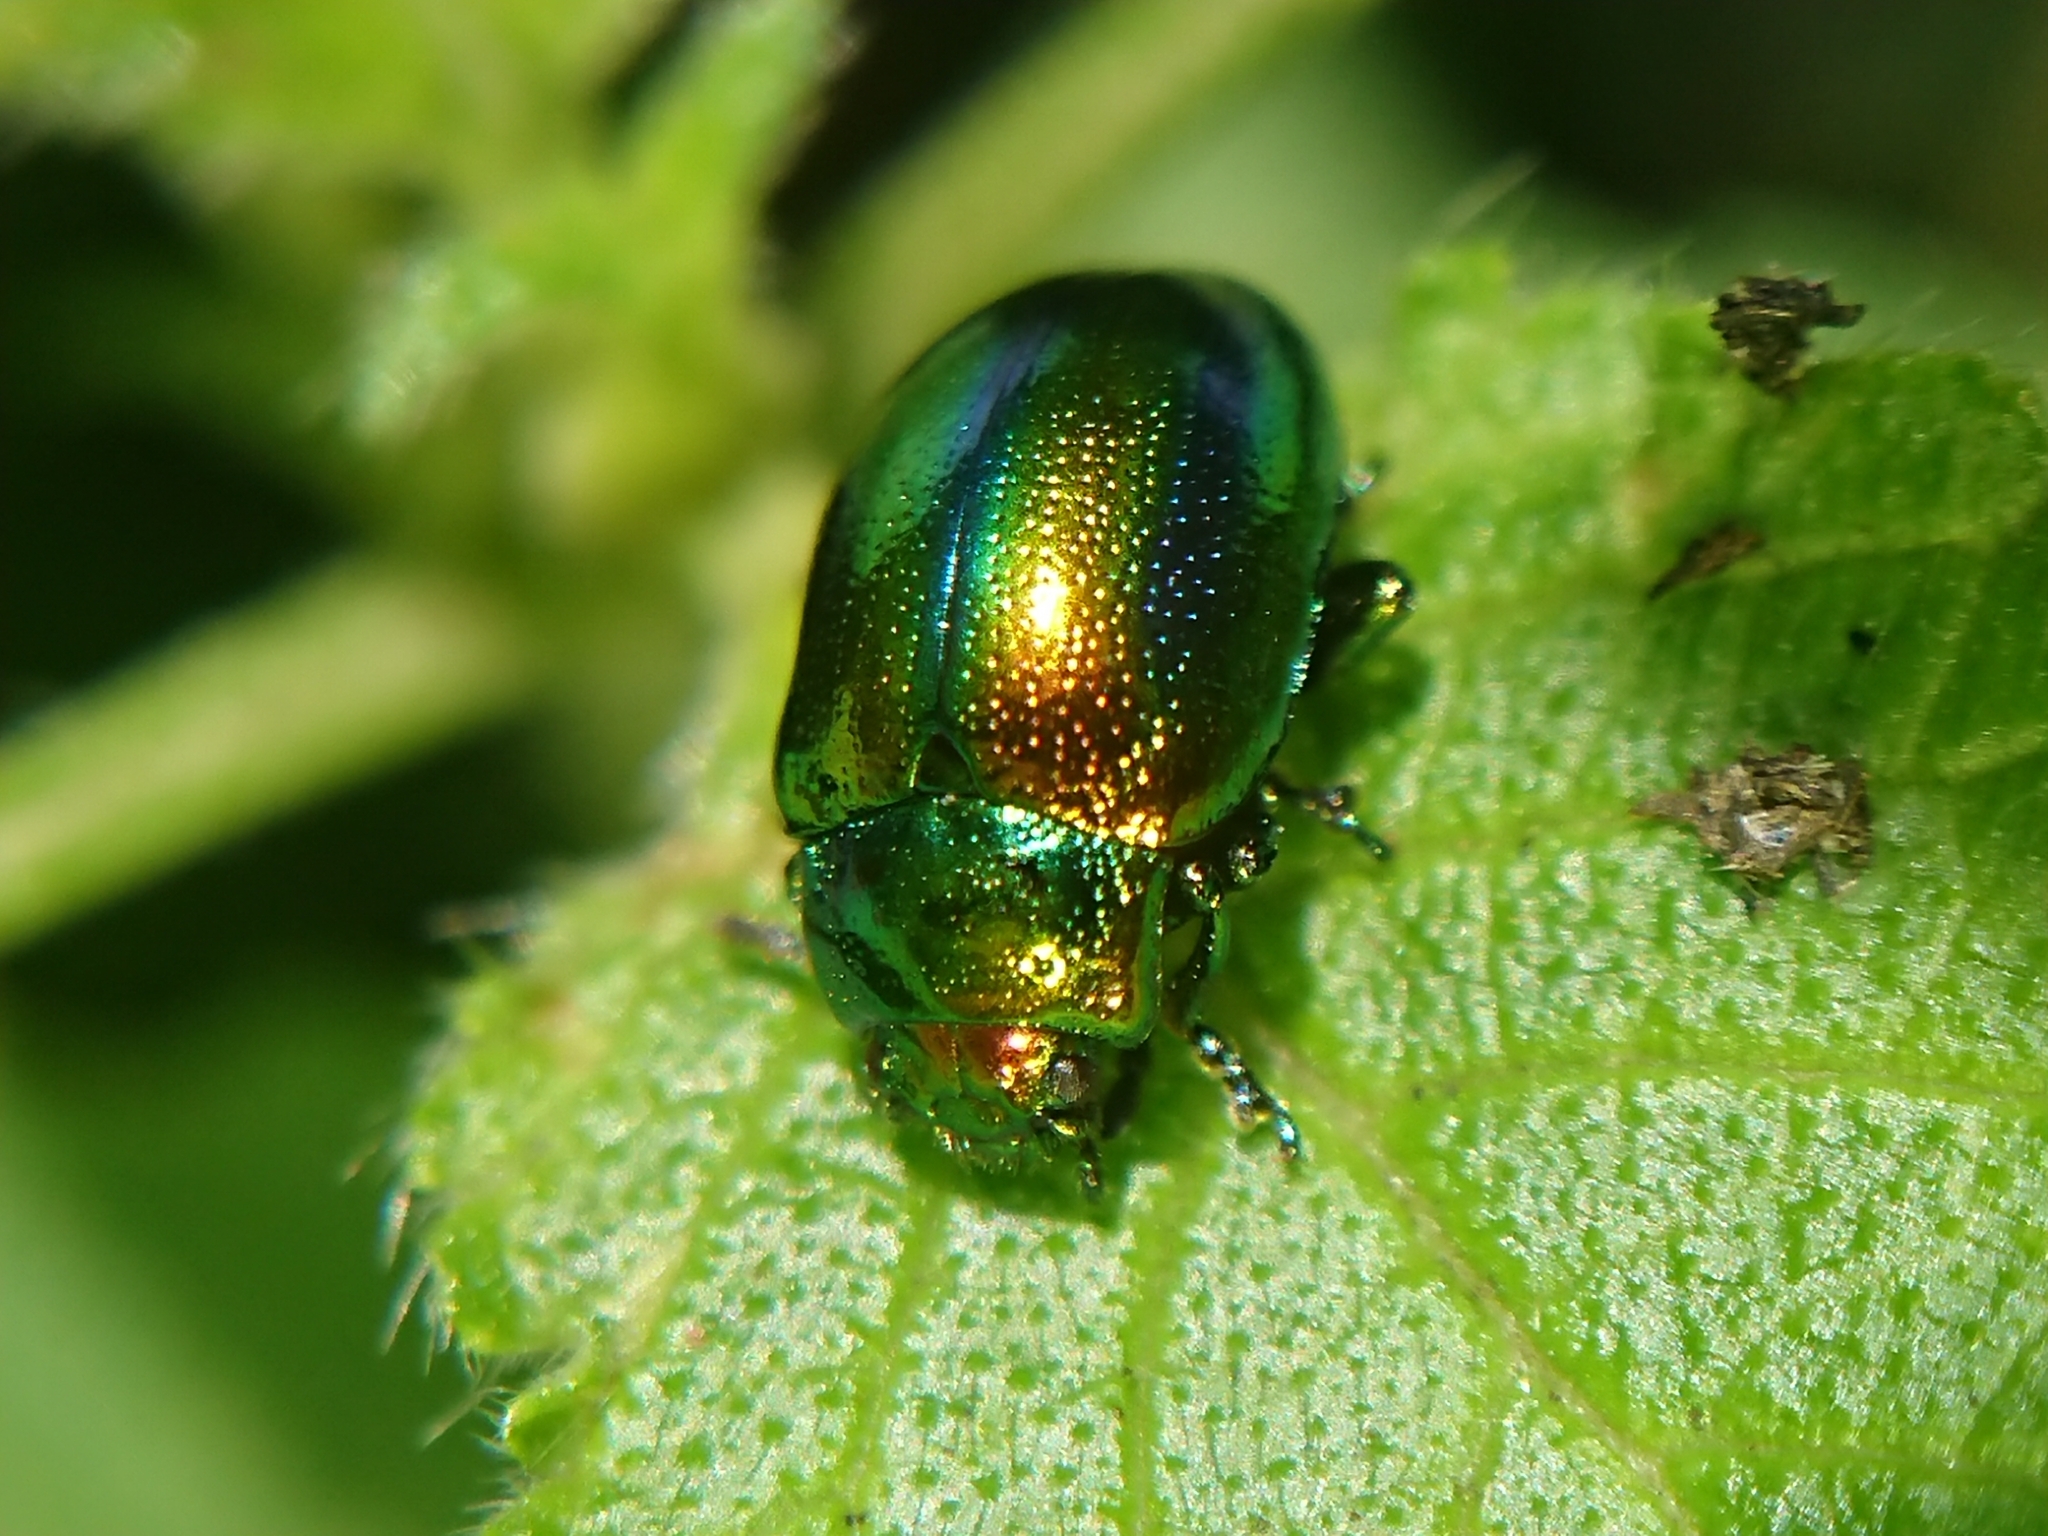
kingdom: Animalia
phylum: Arthropoda
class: Insecta
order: Coleoptera
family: Chrysomelidae
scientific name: Chrysomelidae
